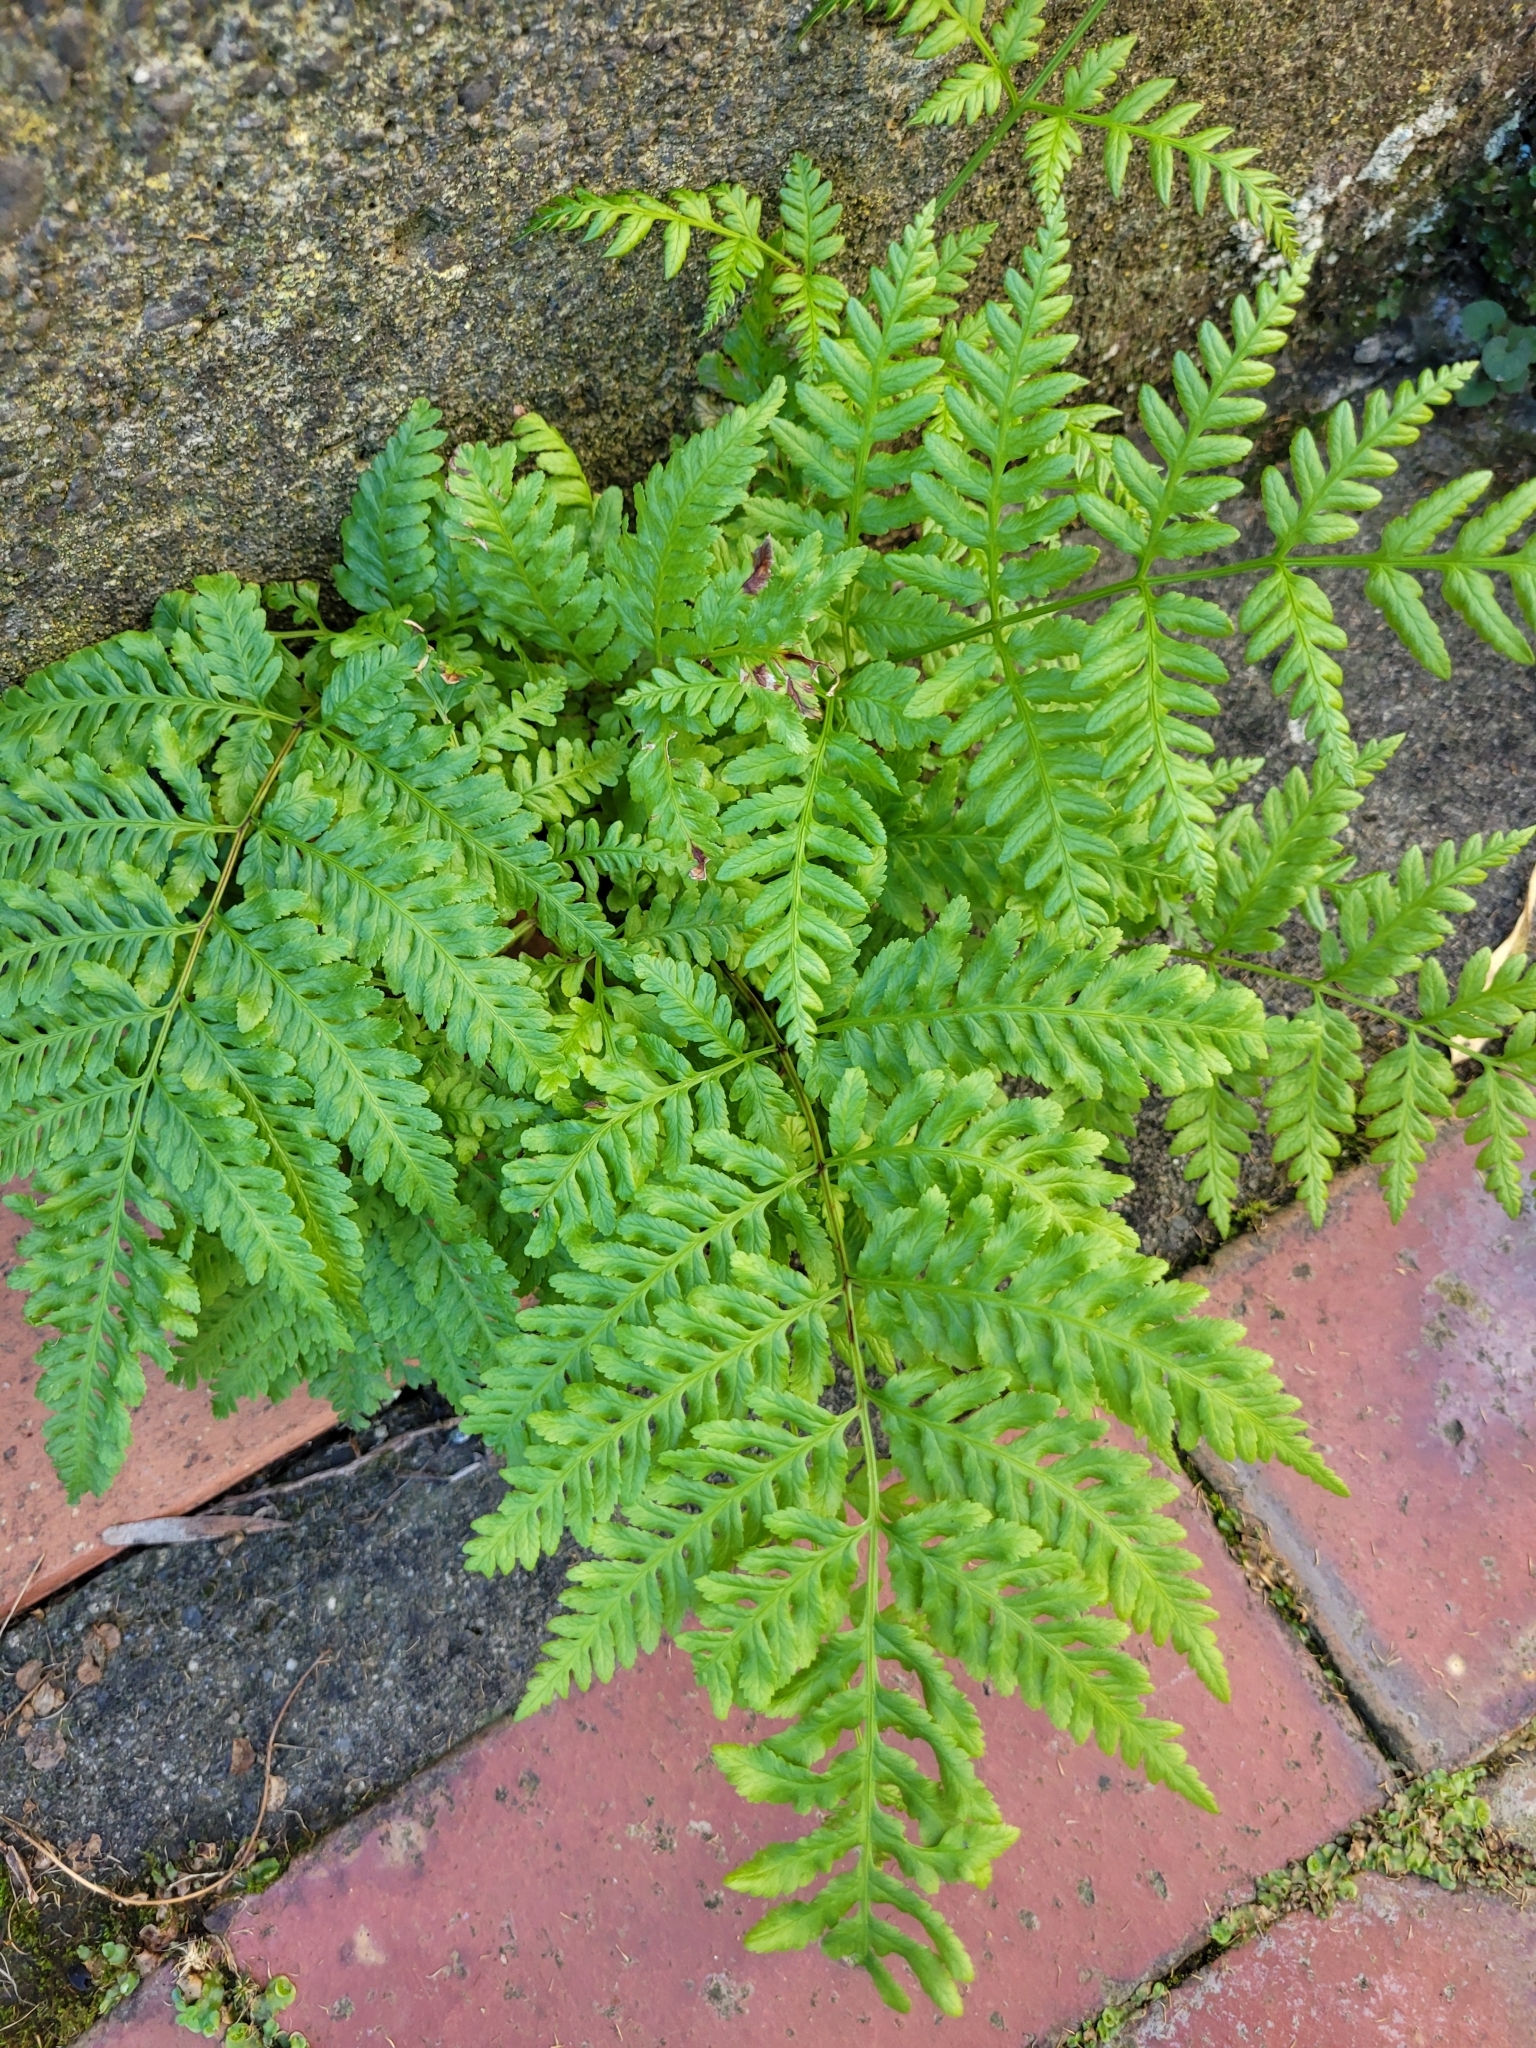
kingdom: Plantae
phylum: Tracheophyta
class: Polypodiopsida
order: Polypodiales
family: Pteridaceae
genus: Pteris
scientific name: Pteris tremula
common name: Australian brake
